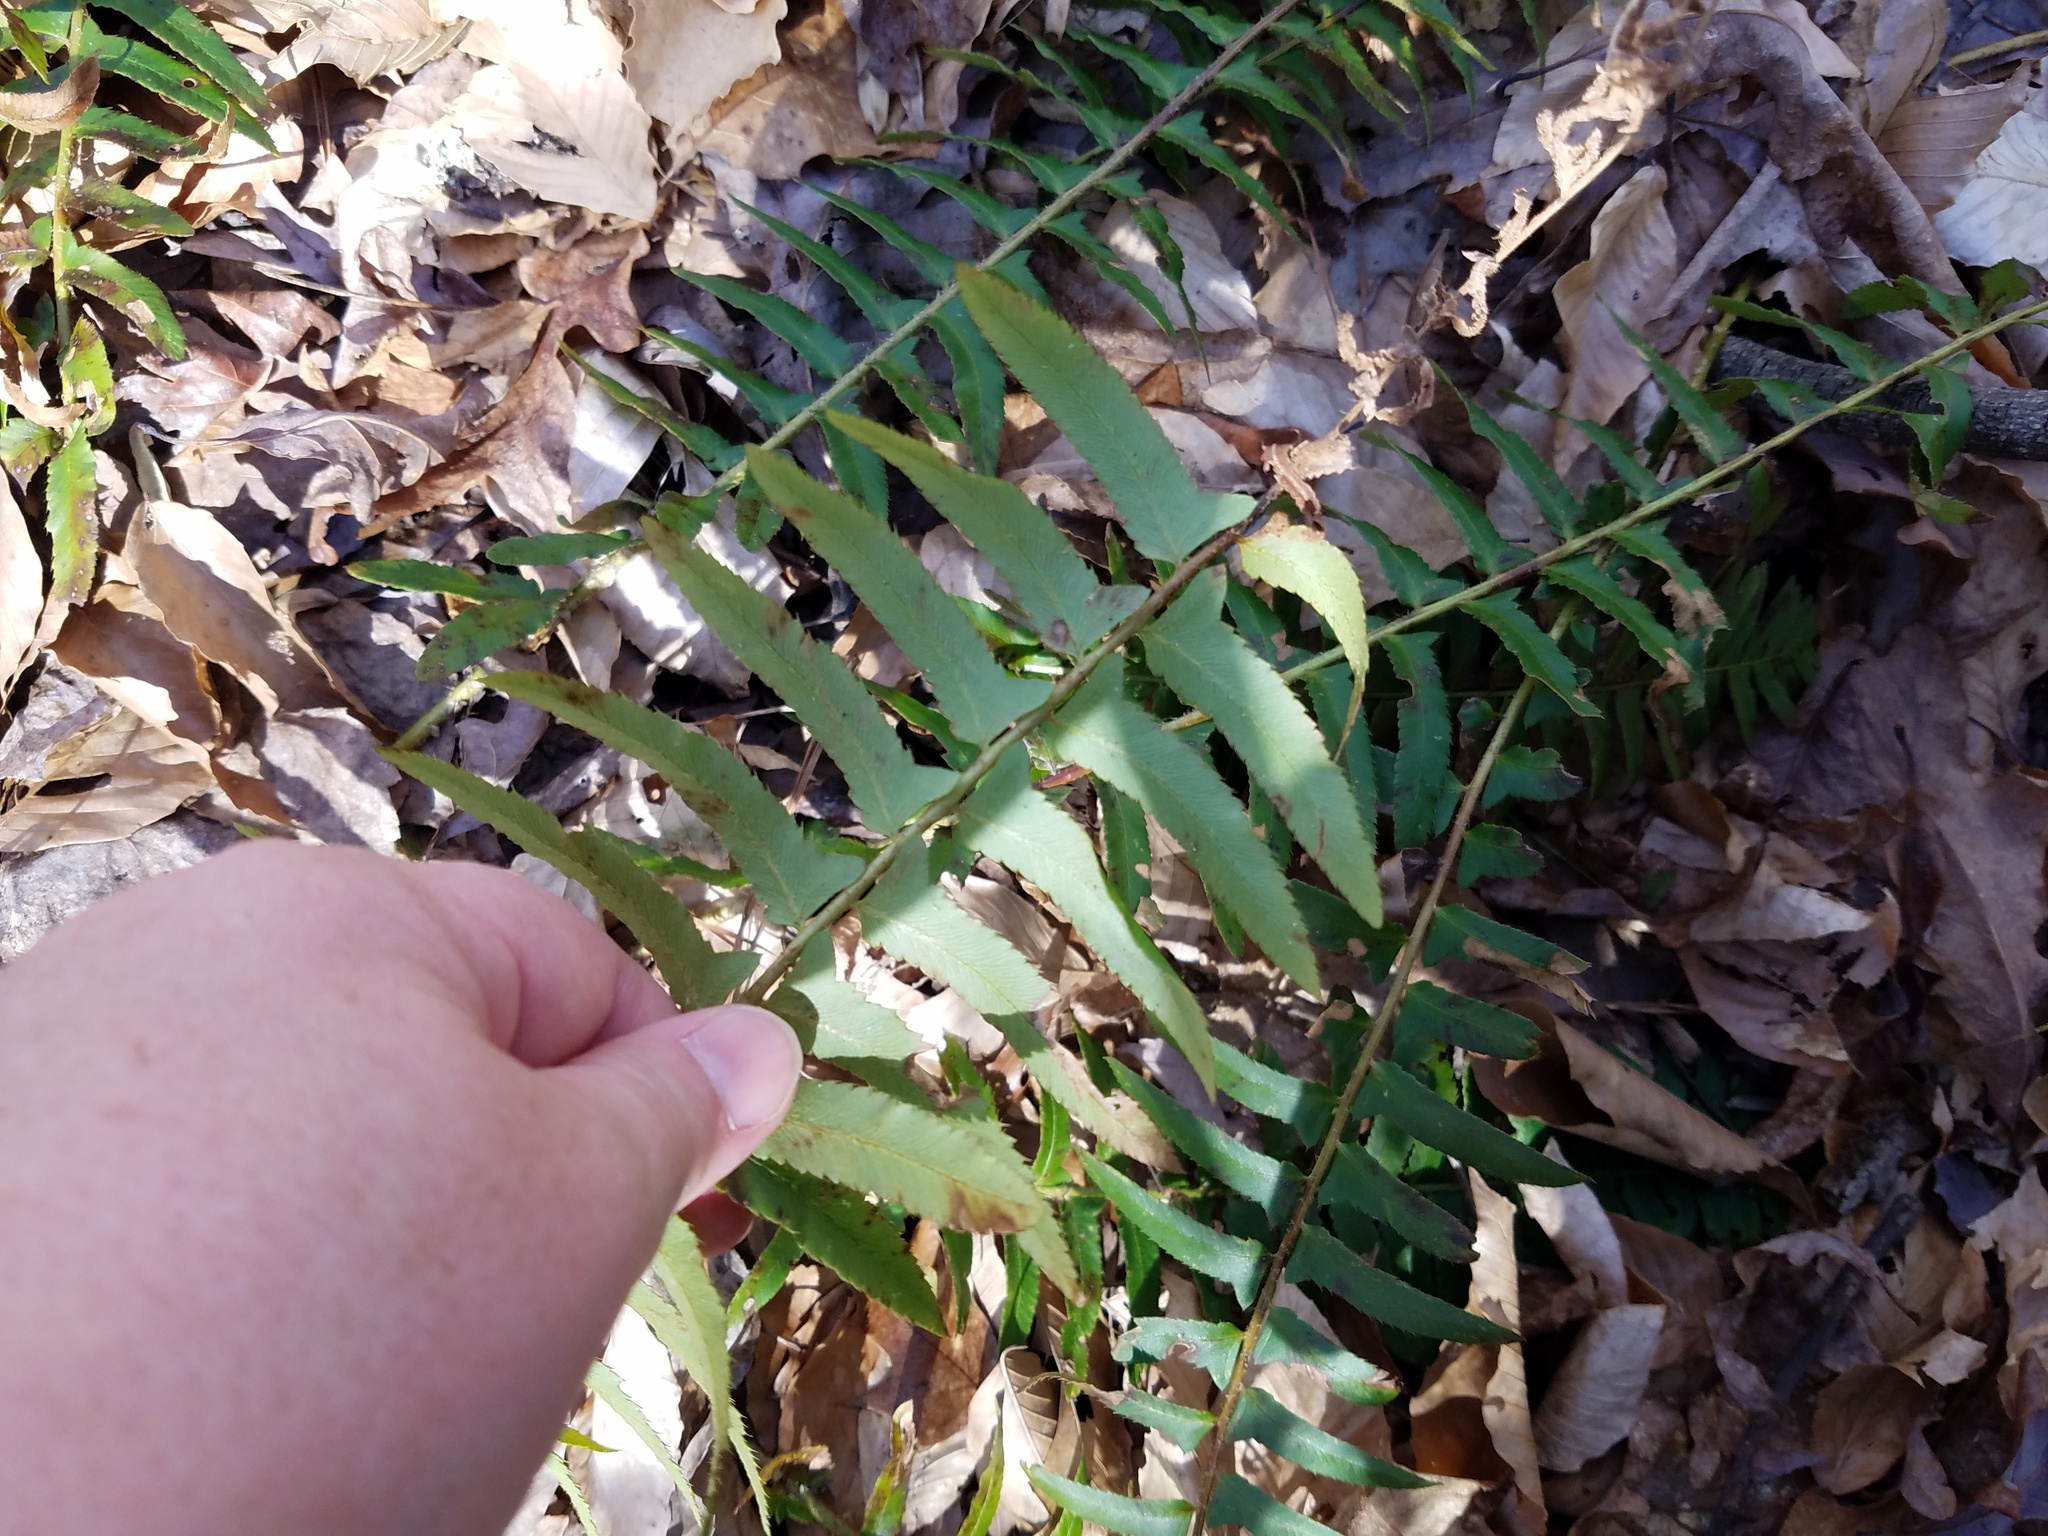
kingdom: Plantae
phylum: Tracheophyta
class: Polypodiopsida
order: Polypodiales
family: Dryopteridaceae
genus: Polystichum
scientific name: Polystichum acrostichoides
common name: Christmas fern
